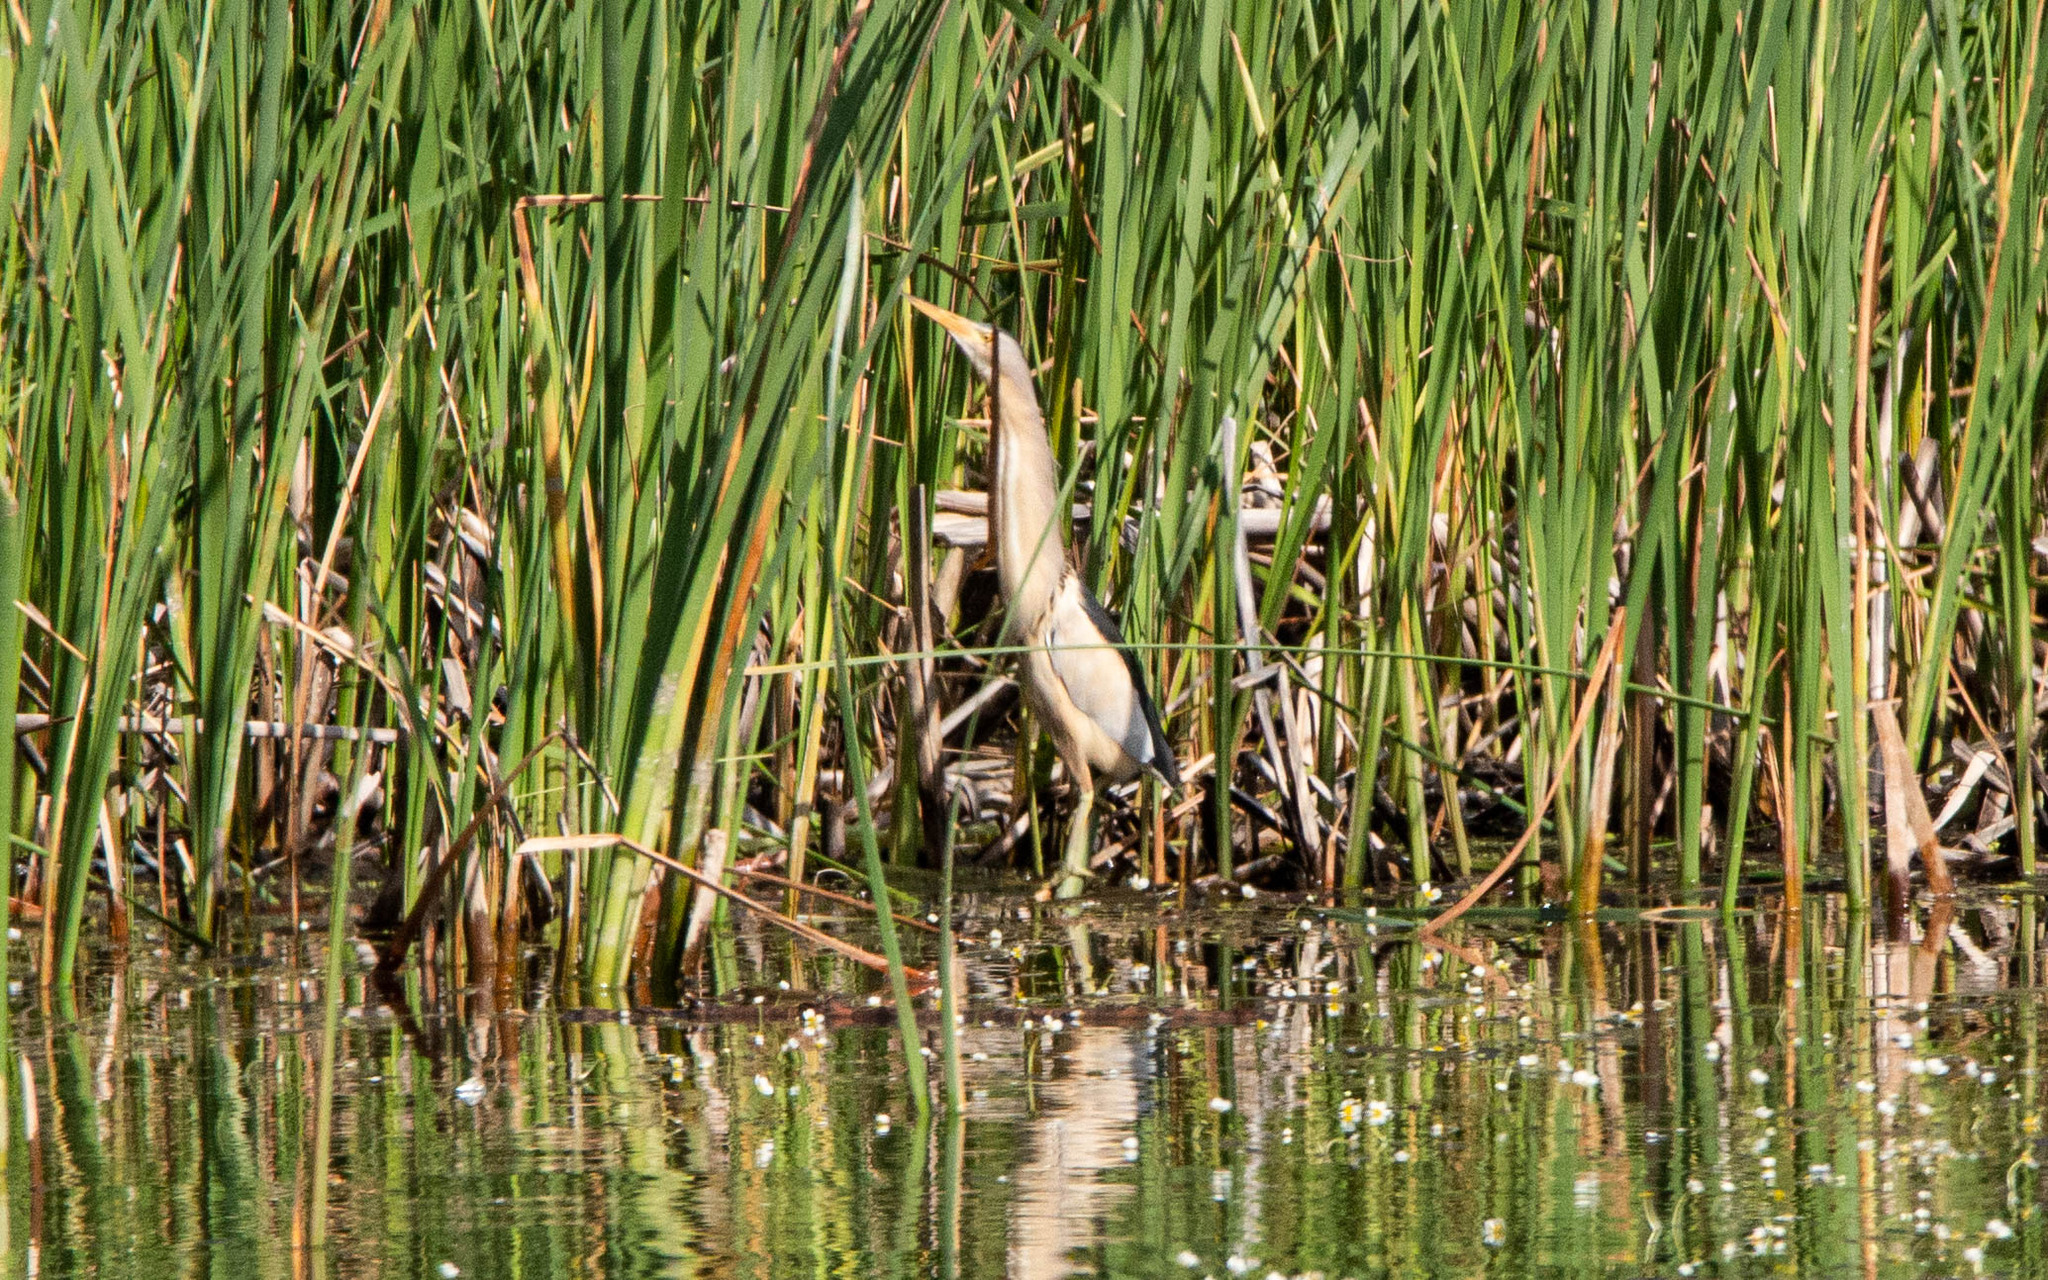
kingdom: Animalia
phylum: Chordata
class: Aves
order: Pelecaniformes
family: Ardeidae
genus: Ixobrychus
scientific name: Ixobrychus minutus
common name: Little bittern
